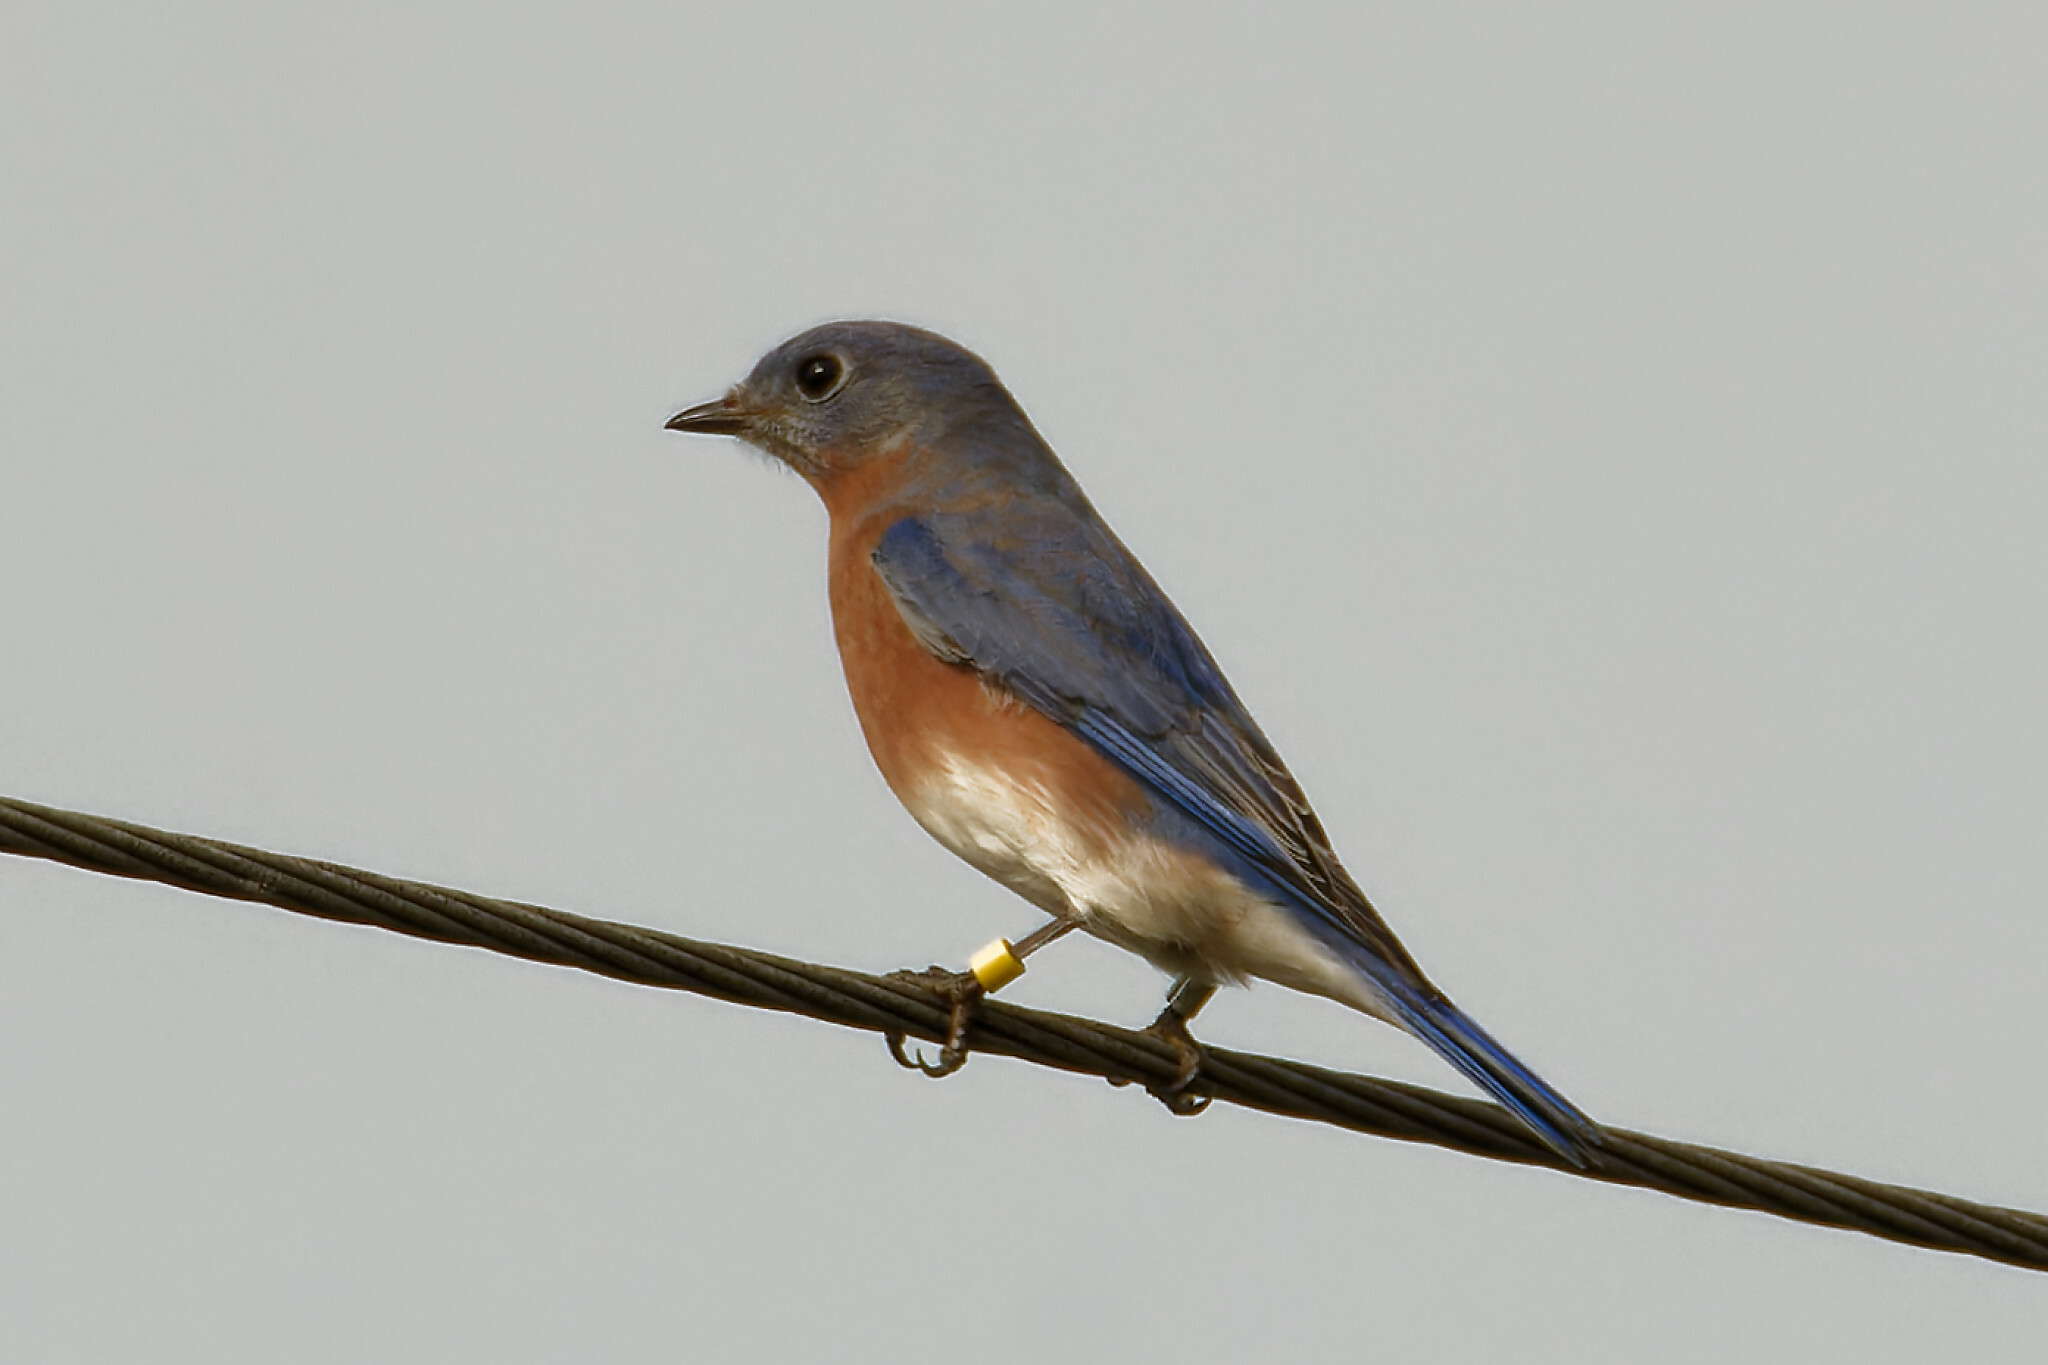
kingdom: Animalia
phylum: Chordata
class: Aves
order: Passeriformes
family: Turdidae
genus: Sialia
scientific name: Sialia sialis
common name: Eastern bluebird
